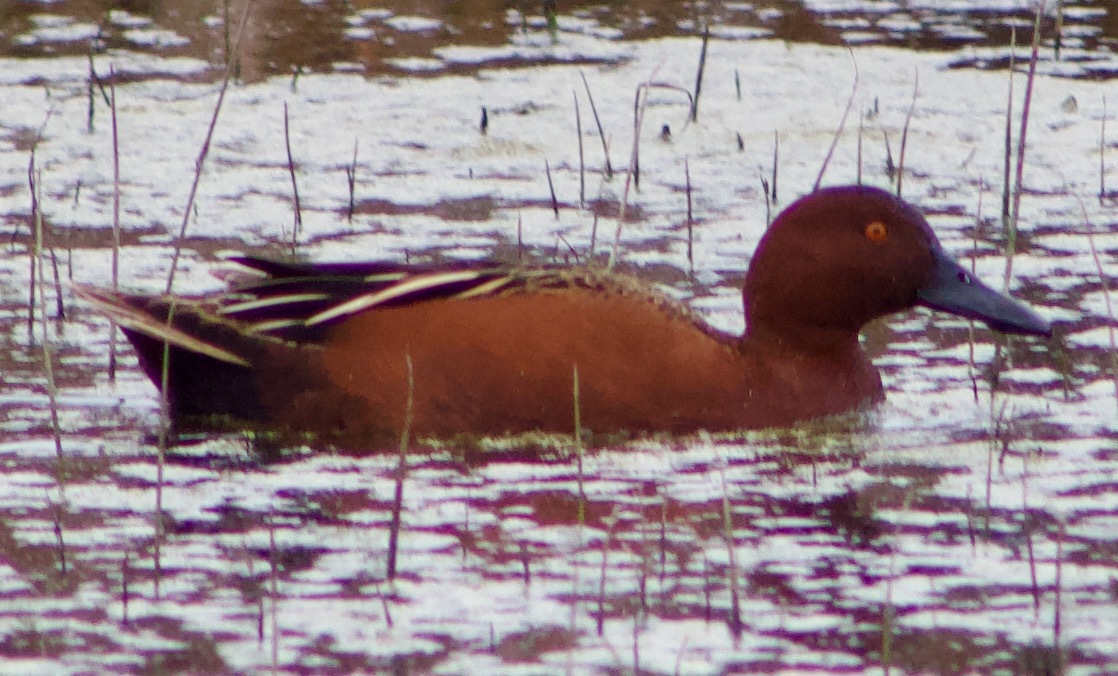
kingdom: Animalia
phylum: Chordata
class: Aves
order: Anseriformes
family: Anatidae
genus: Spatula
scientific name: Spatula cyanoptera
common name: Cinnamon teal
